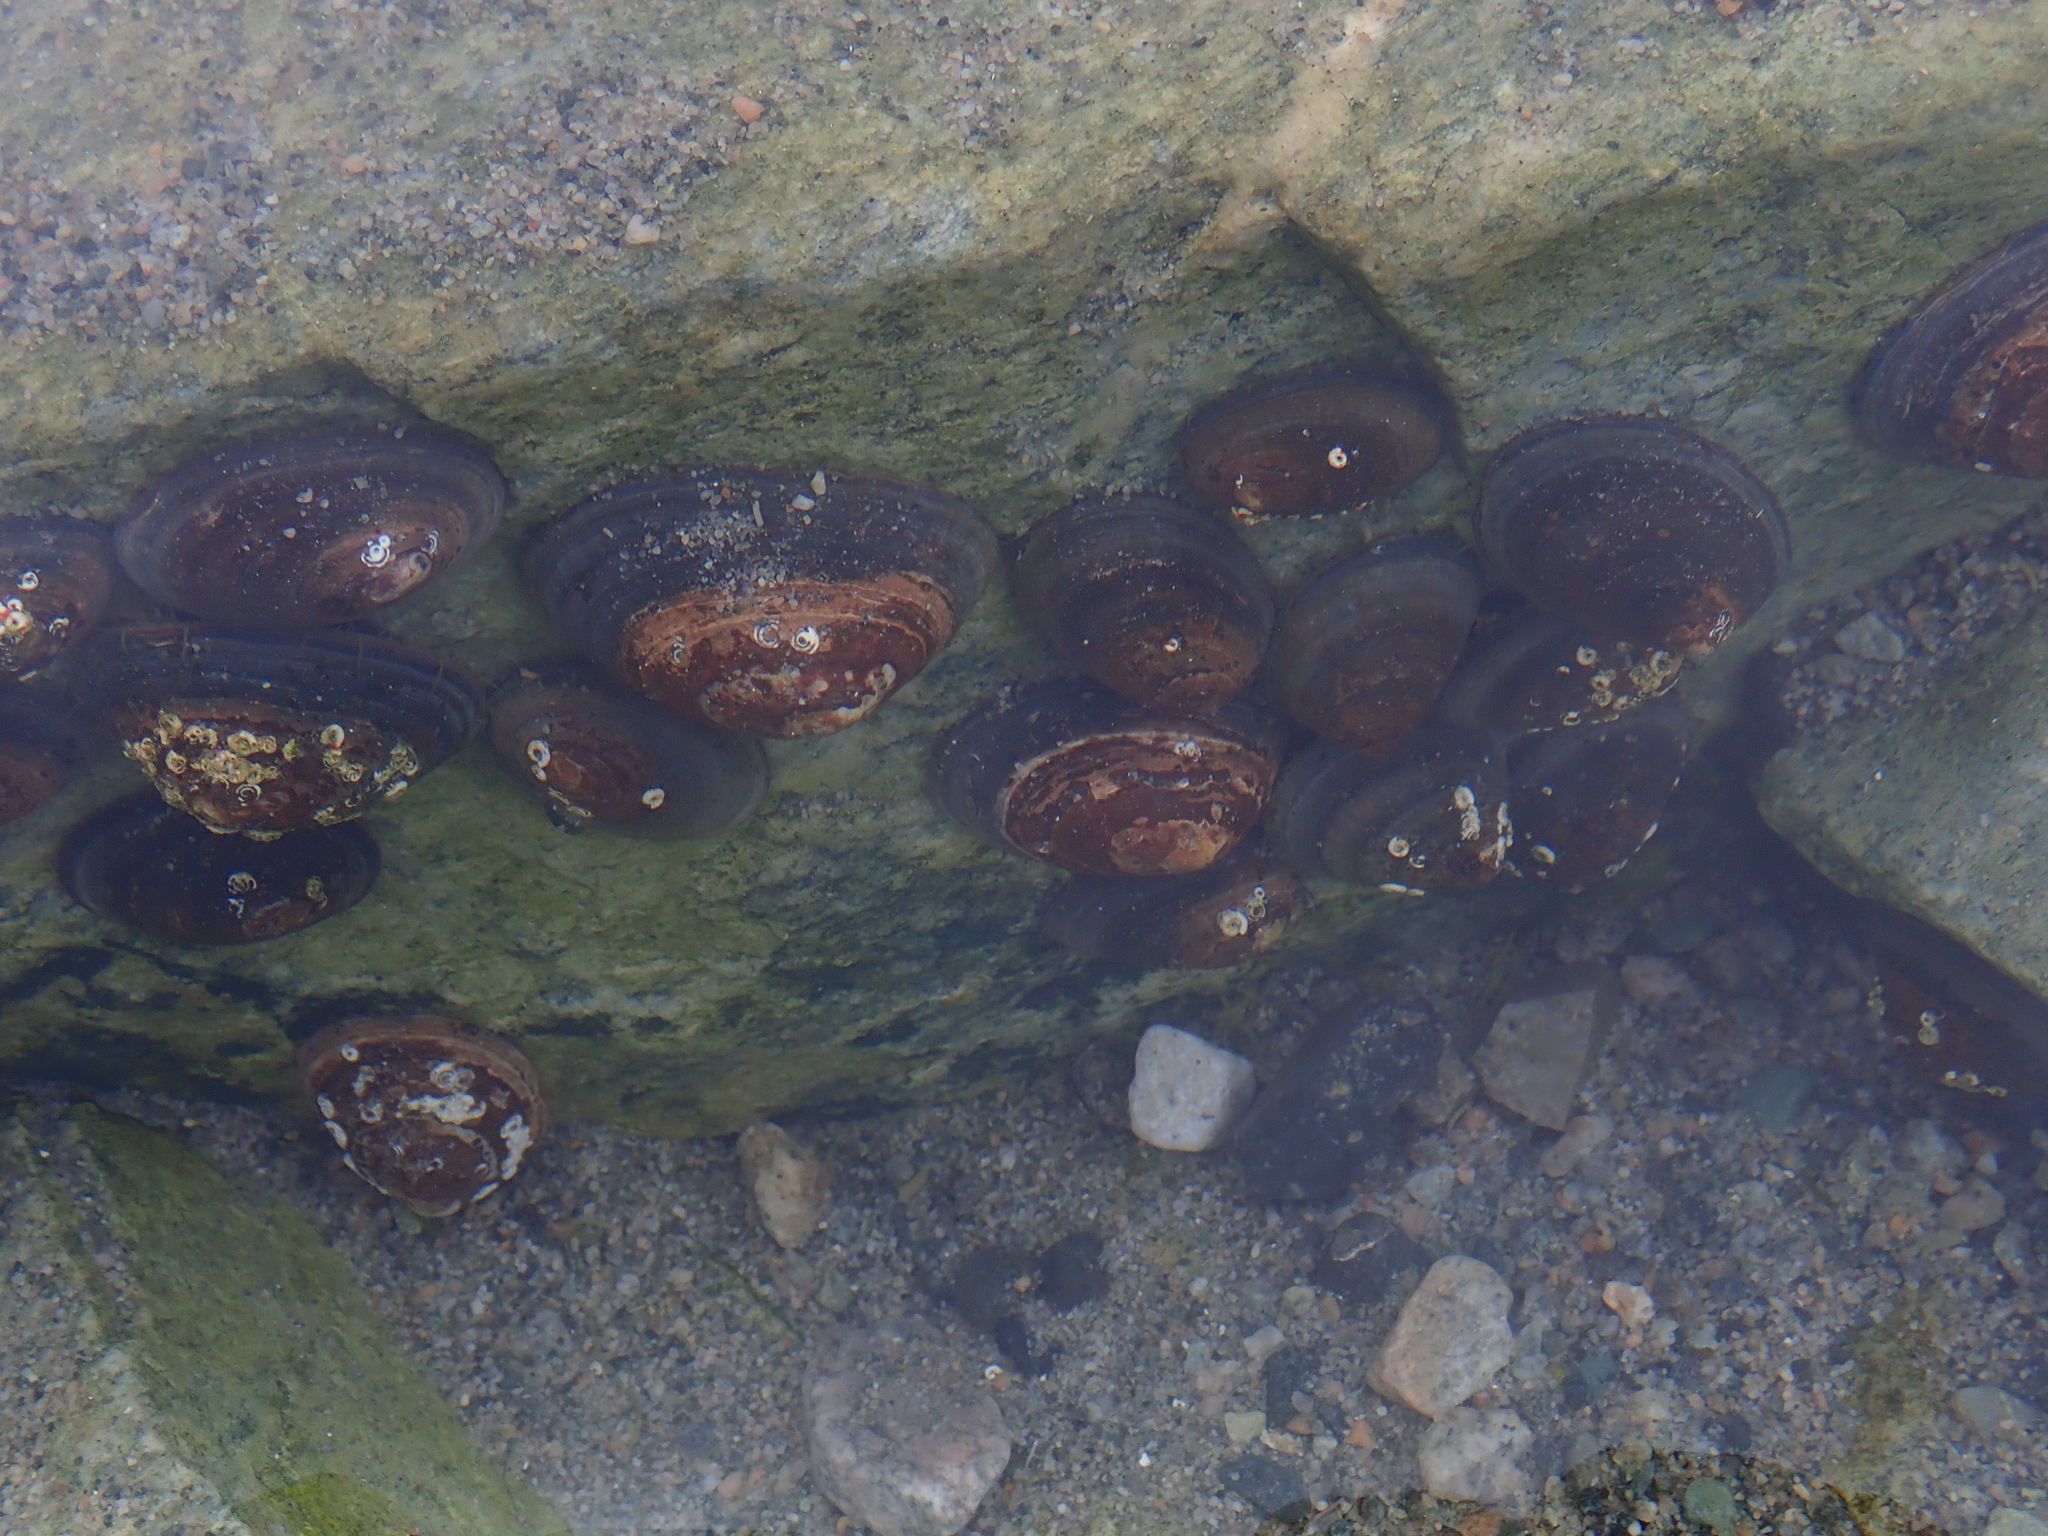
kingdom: Animalia
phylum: Mollusca
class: Gastropoda
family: Nacellidae
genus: Nacella
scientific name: Nacella concinna
